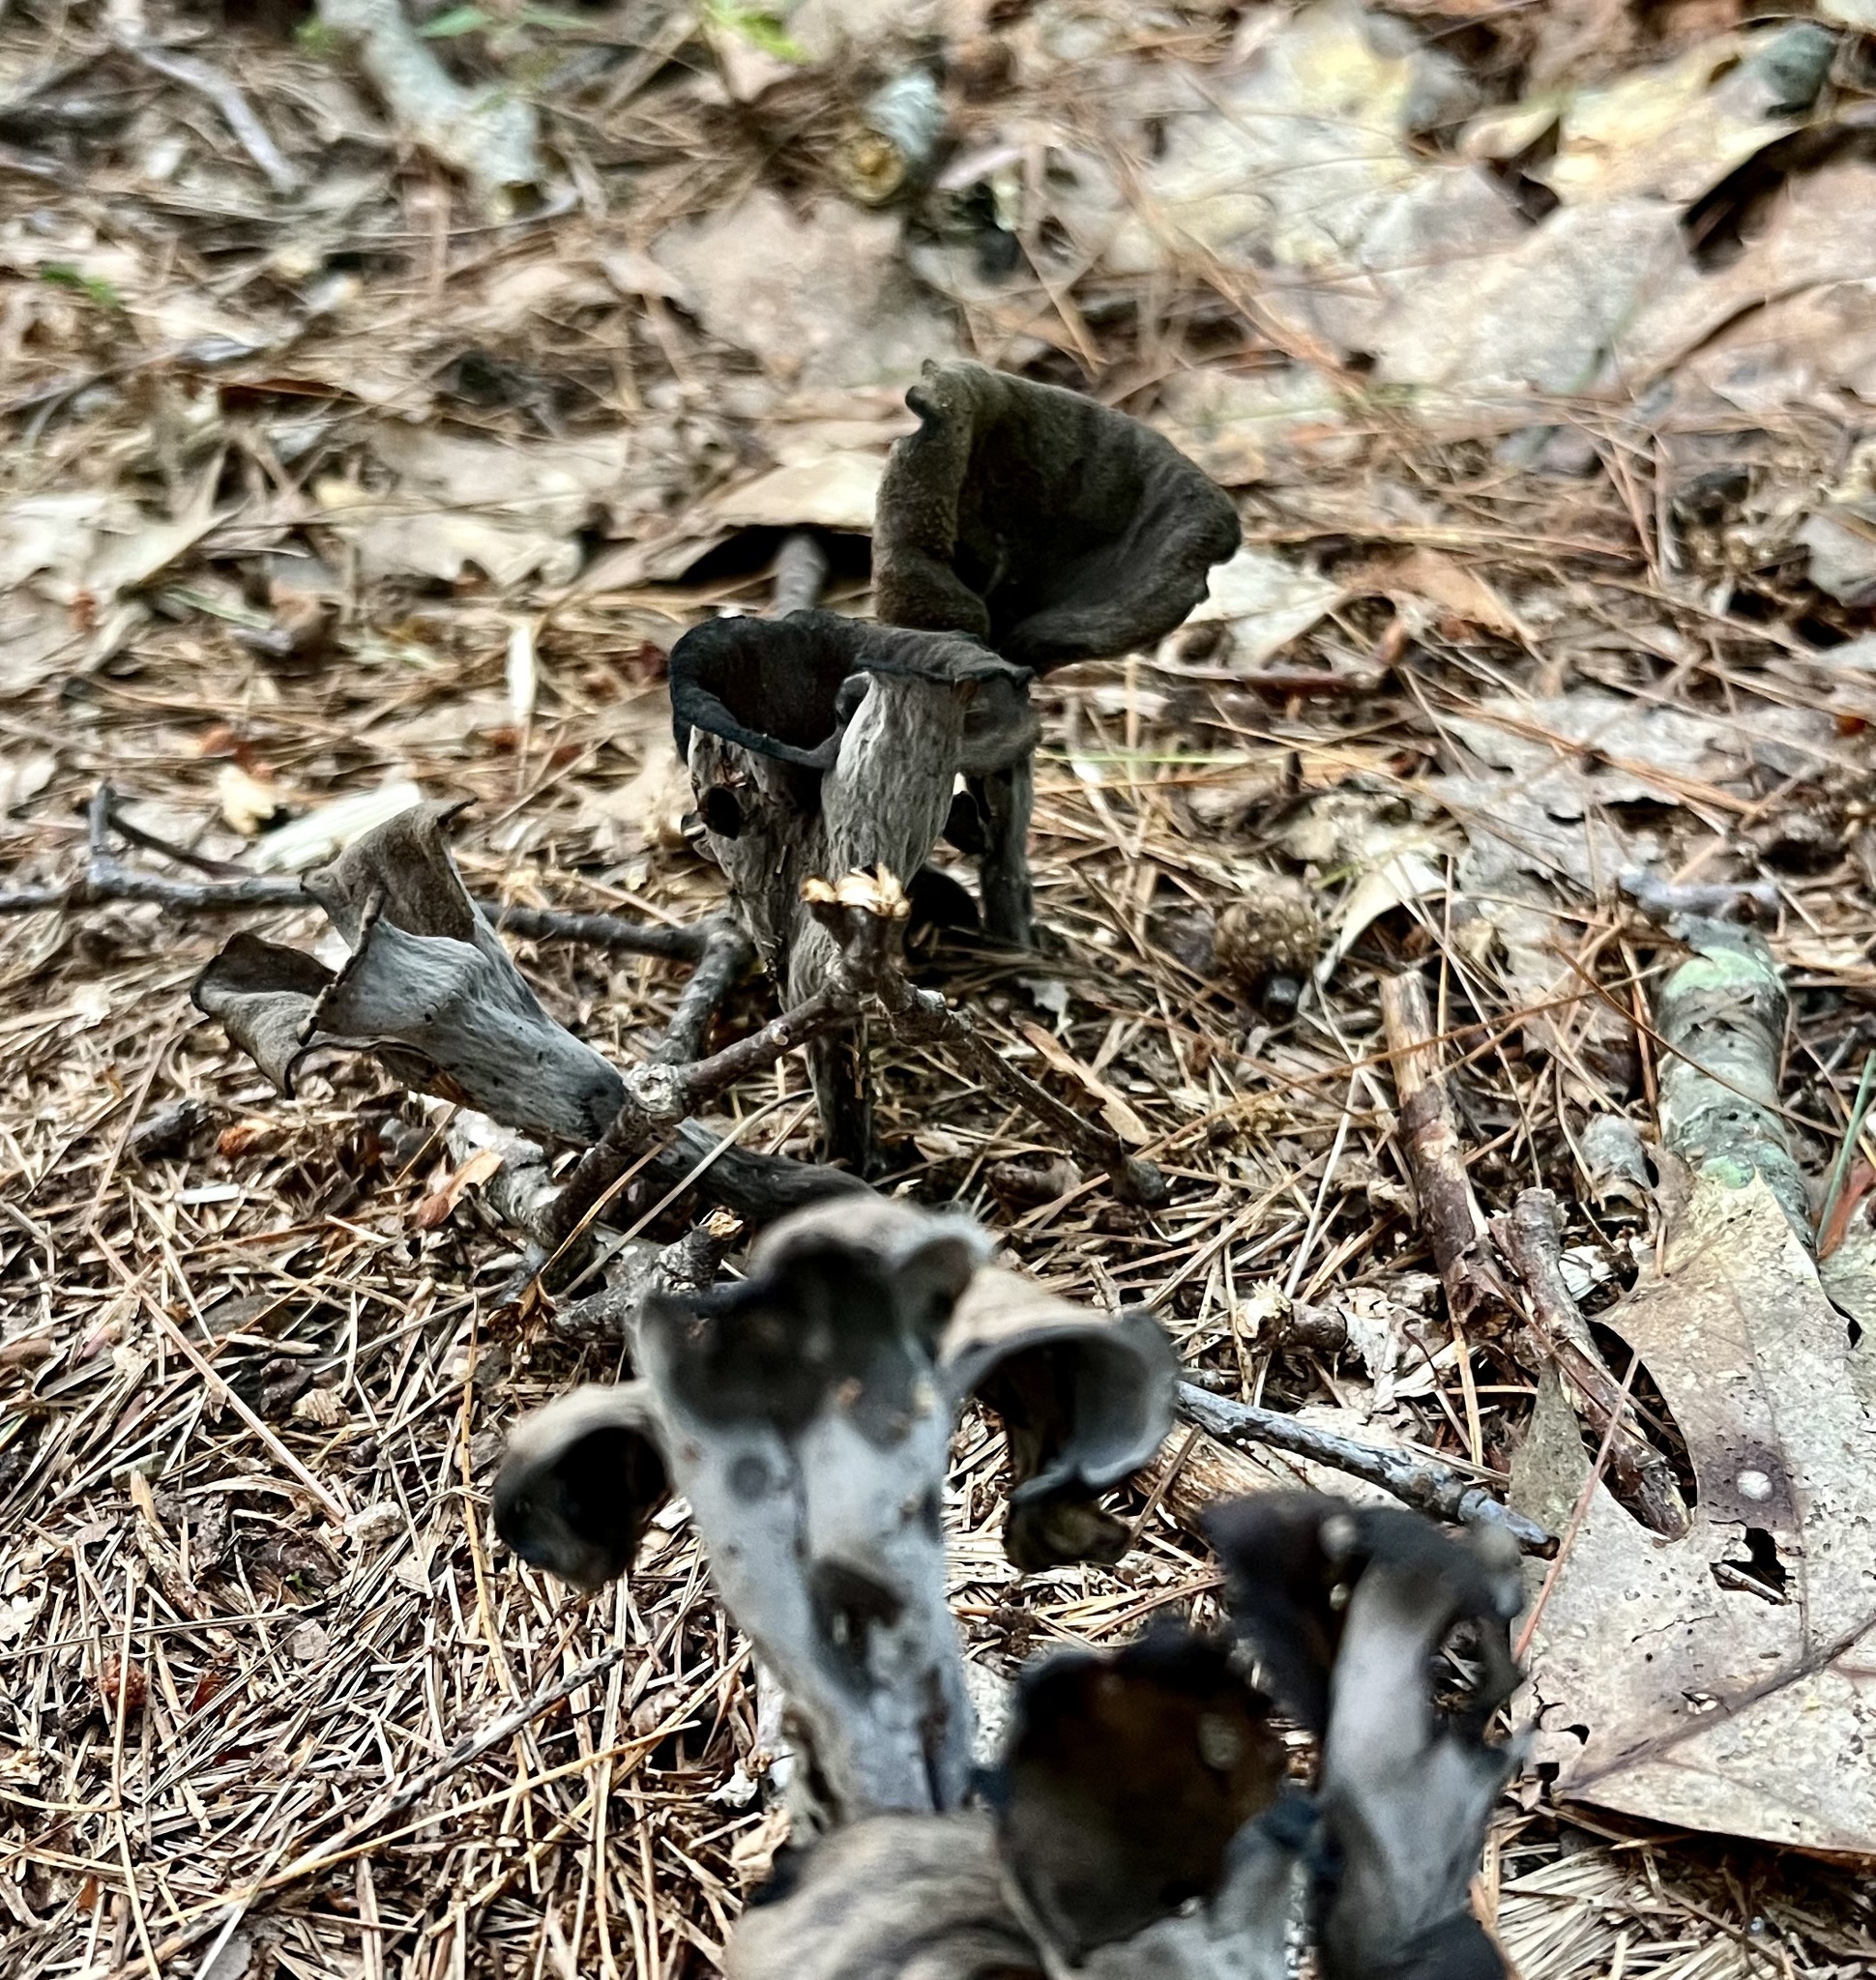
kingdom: Fungi
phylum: Basidiomycota
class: Agaricomycetes
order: Cantharellales
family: Hydnaceae
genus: Craterellus
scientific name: Craterellus cornucopioides
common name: Horn of plenty
